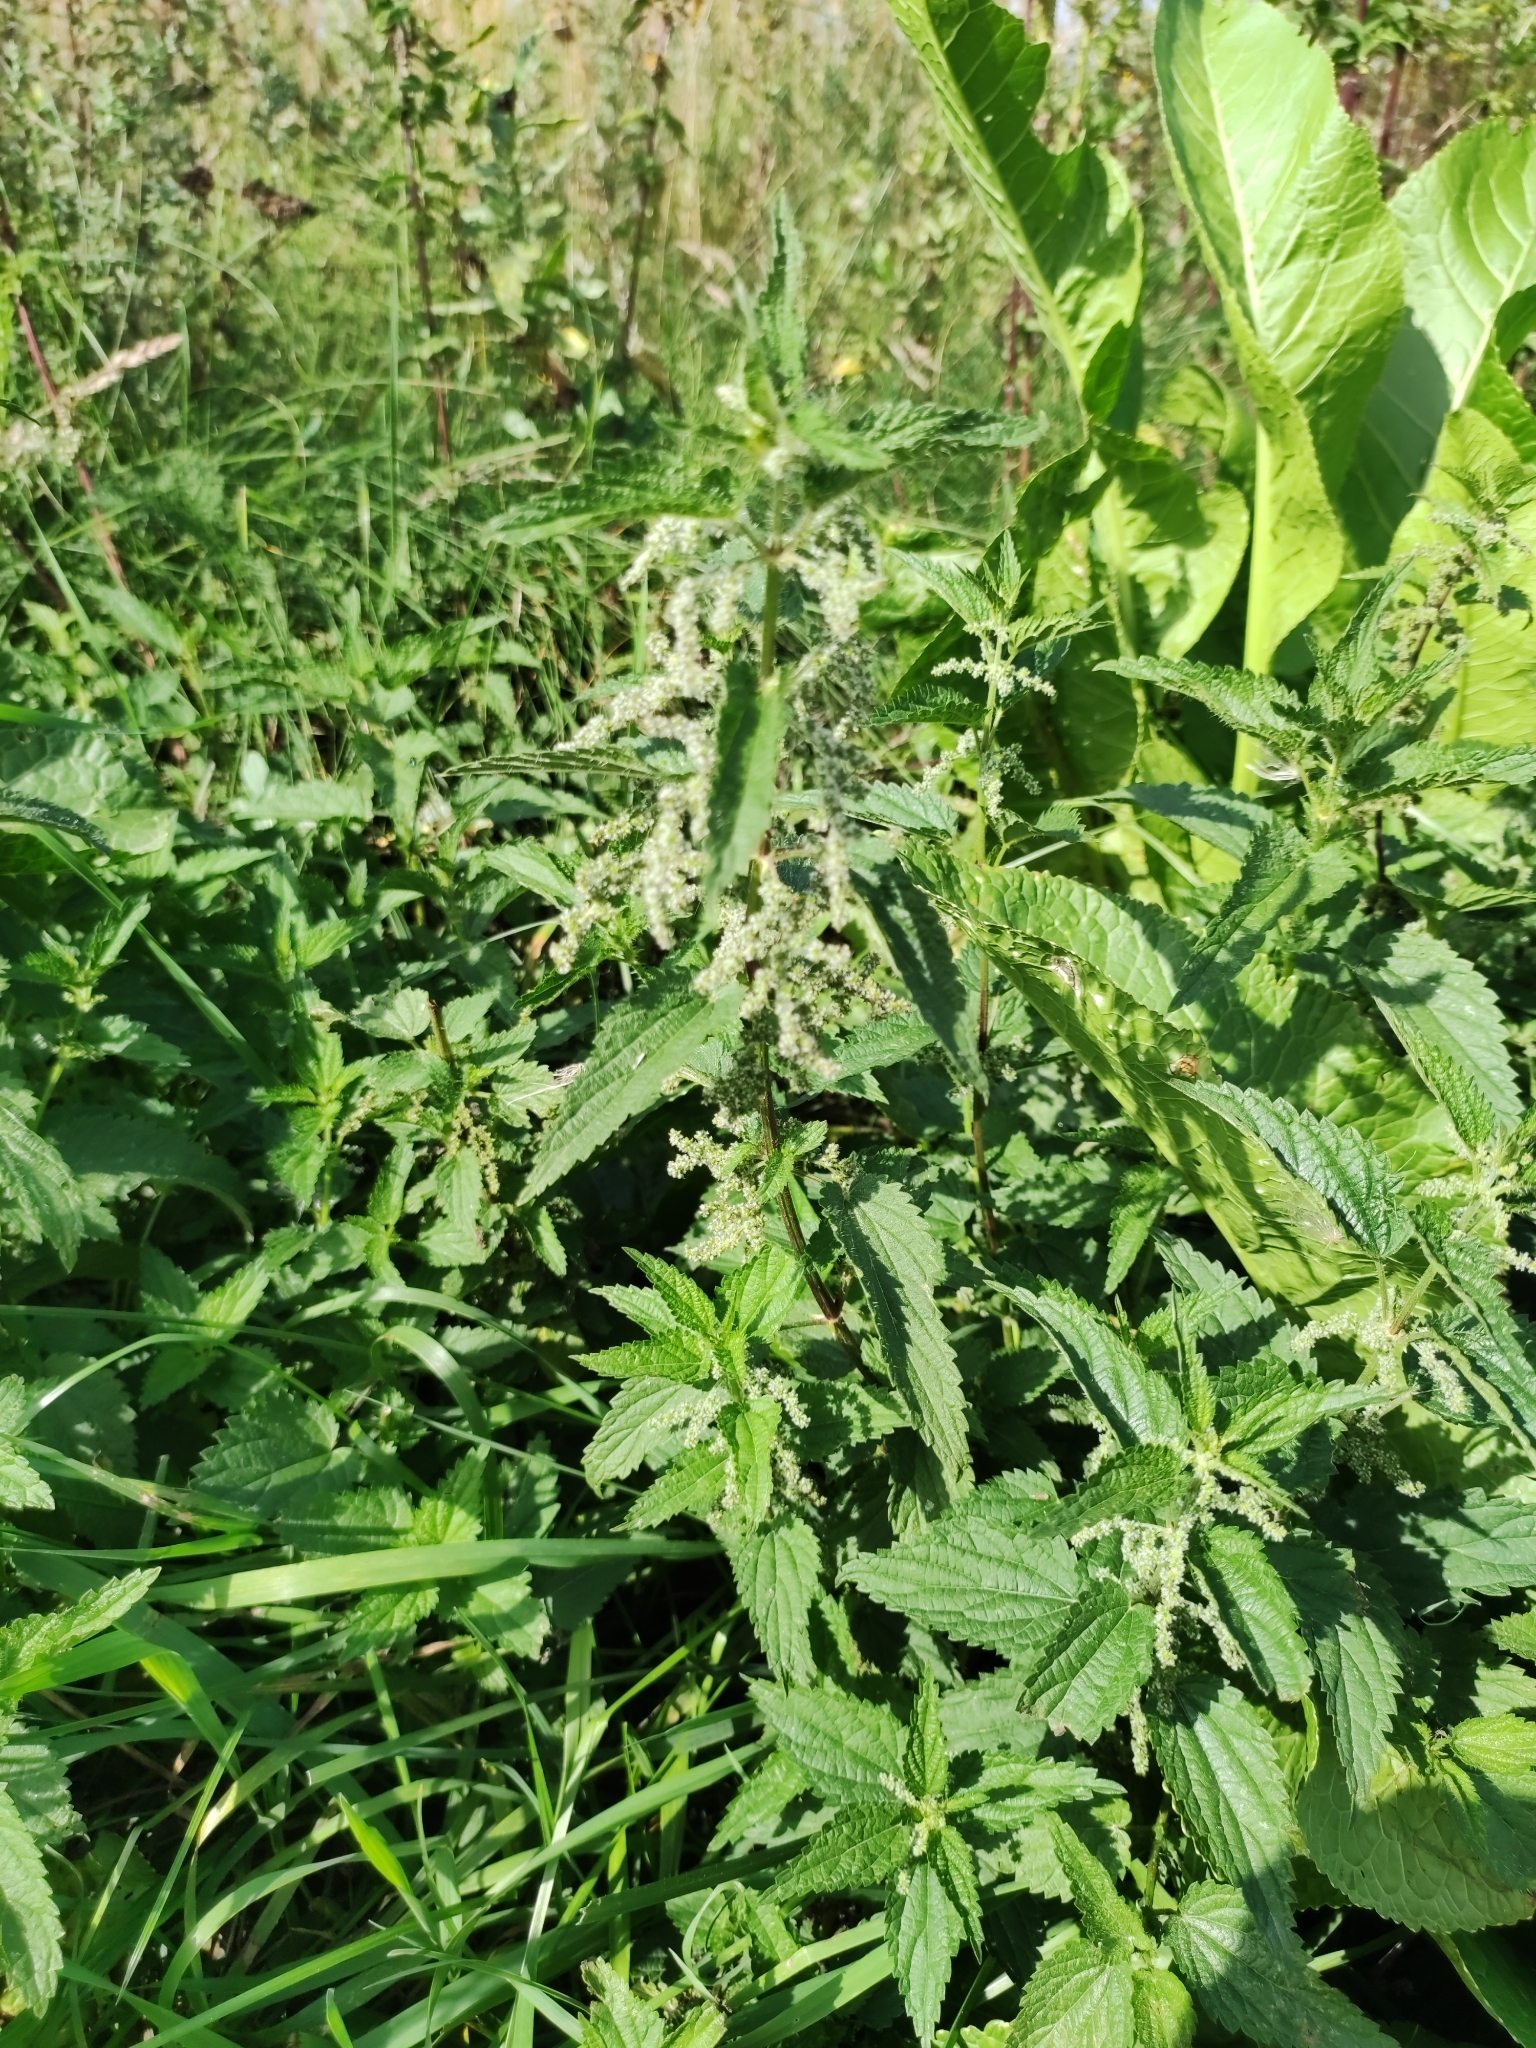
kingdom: Plantae
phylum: Tracheophyta
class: Magnoliopsida
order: Rosales
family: Urticaceae
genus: Urtica
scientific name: Urtica dioica
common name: Common nettle
